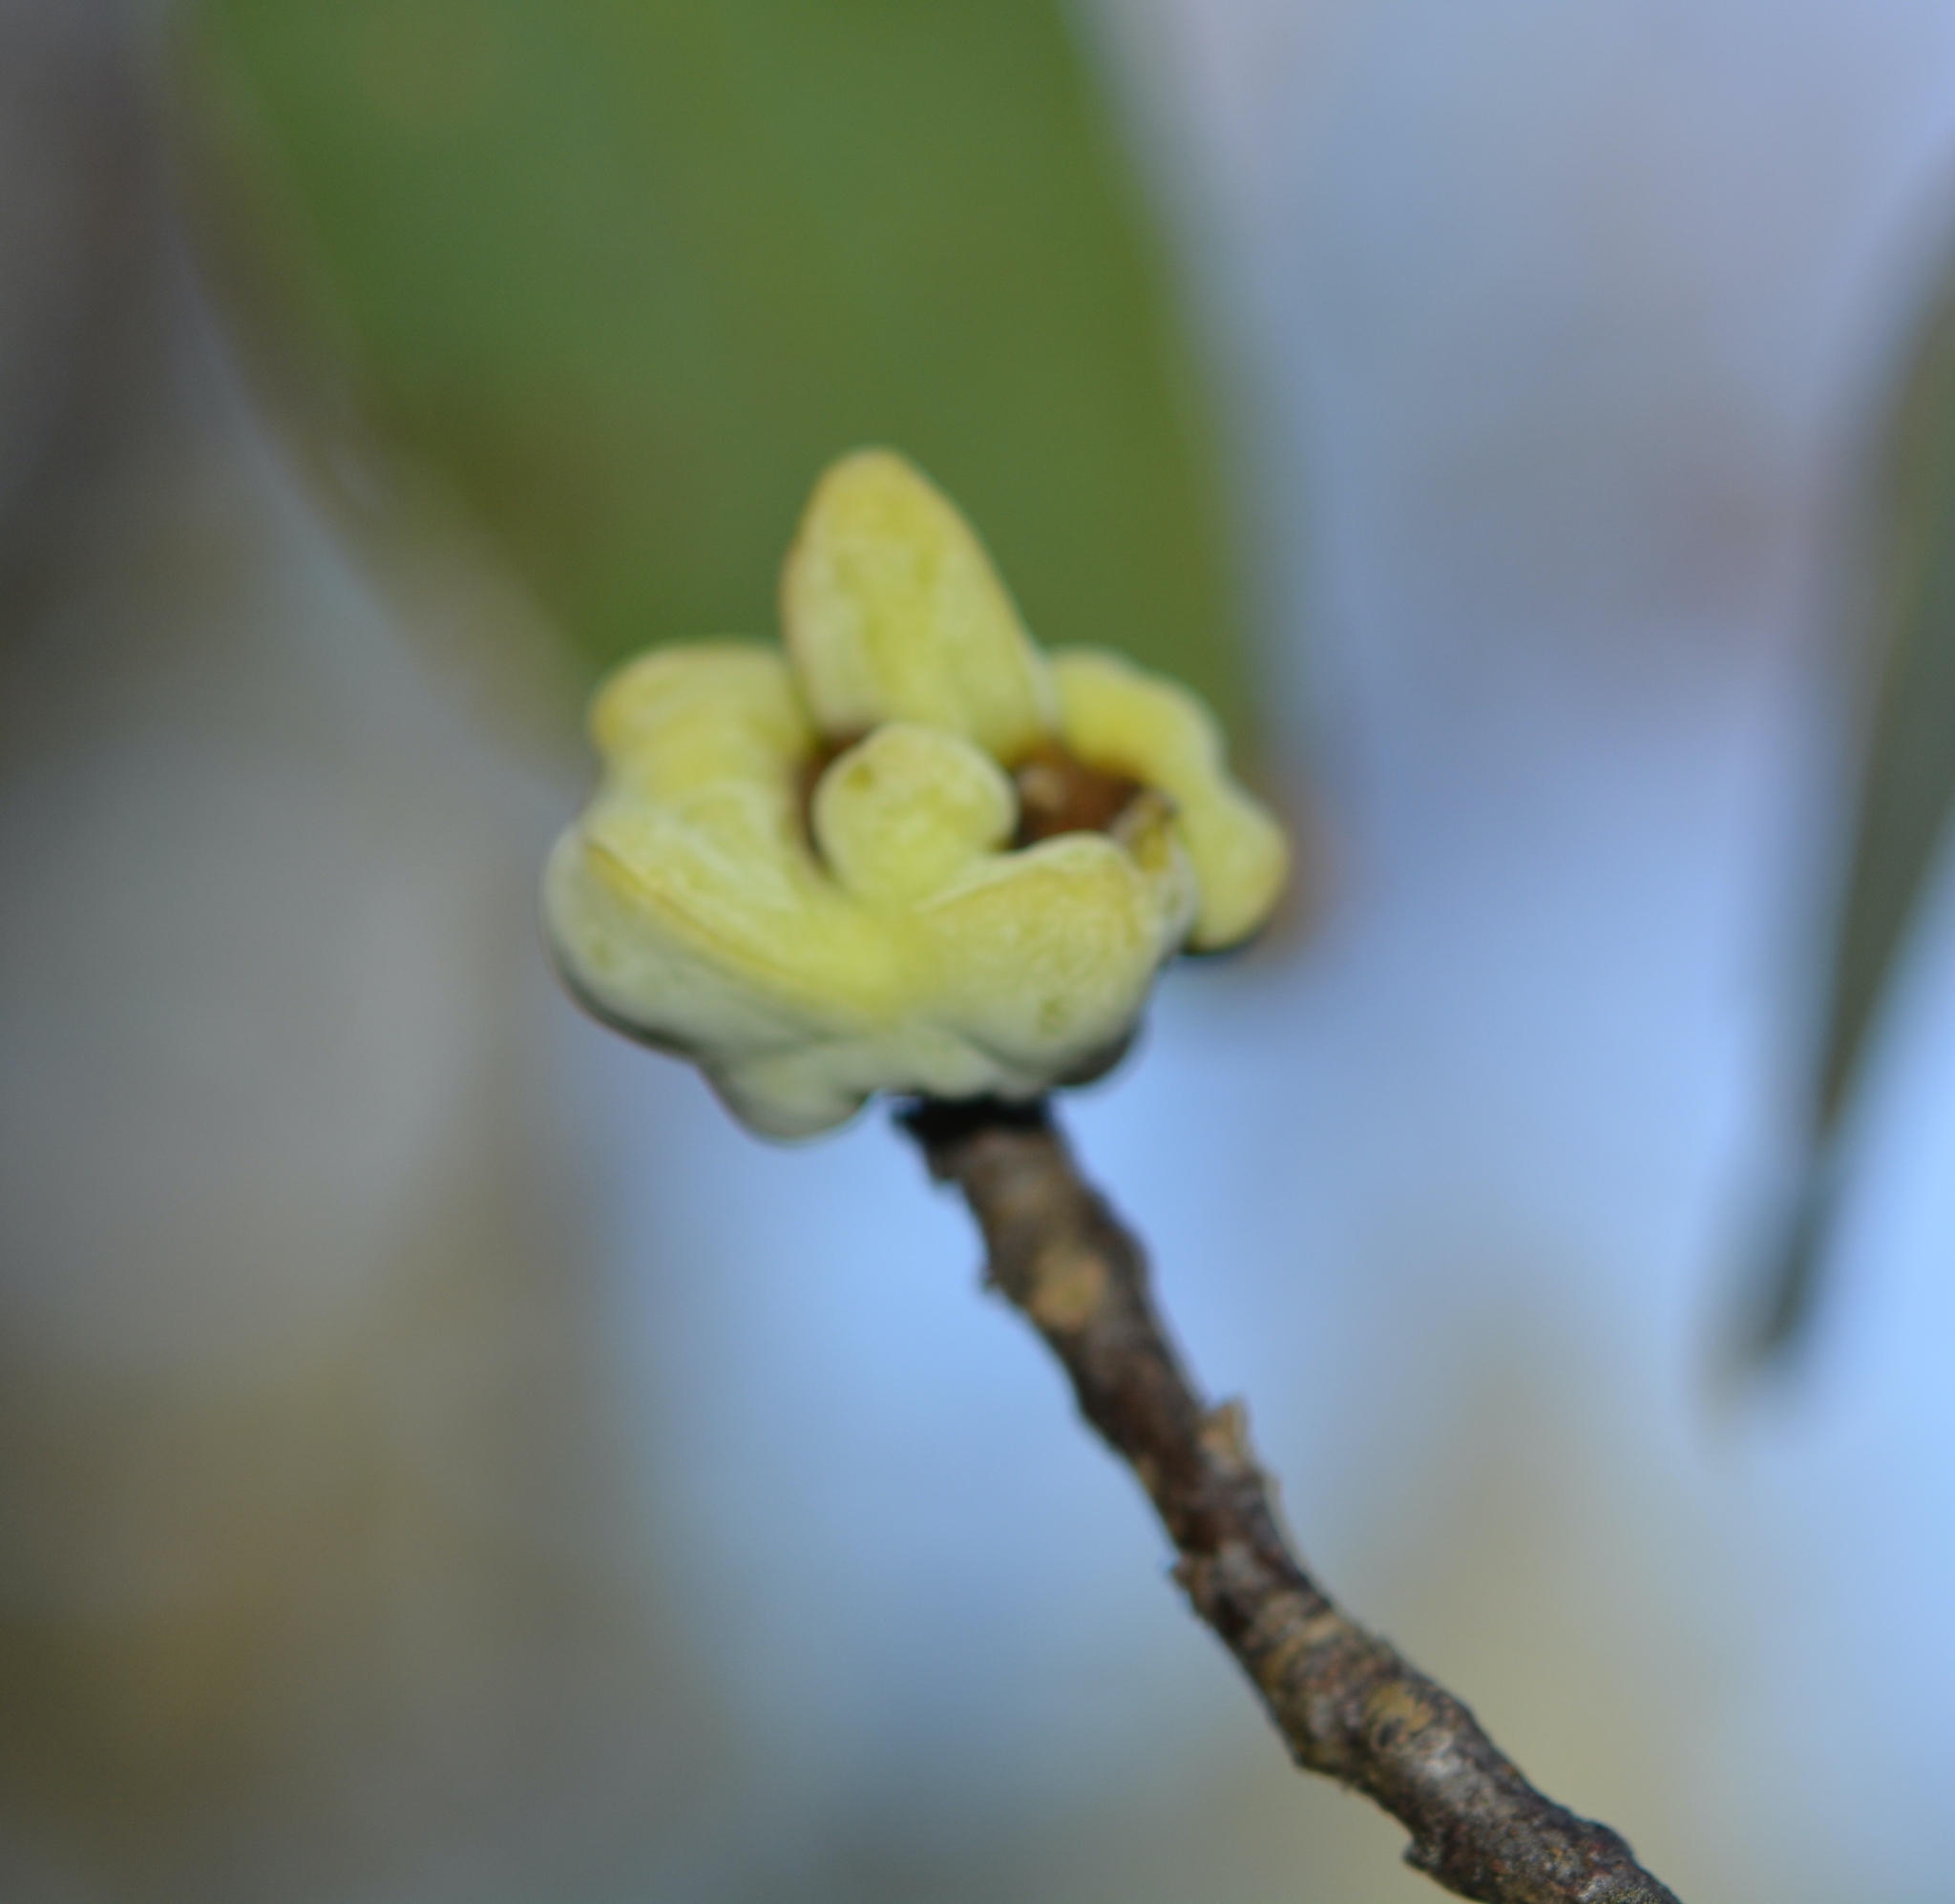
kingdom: Fungi
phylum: Basidiomycota
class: Exobasidiomycetes
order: Exobasidiales
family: Exobasidiaceae
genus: Exobasidium
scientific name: Exobasidium symploci
